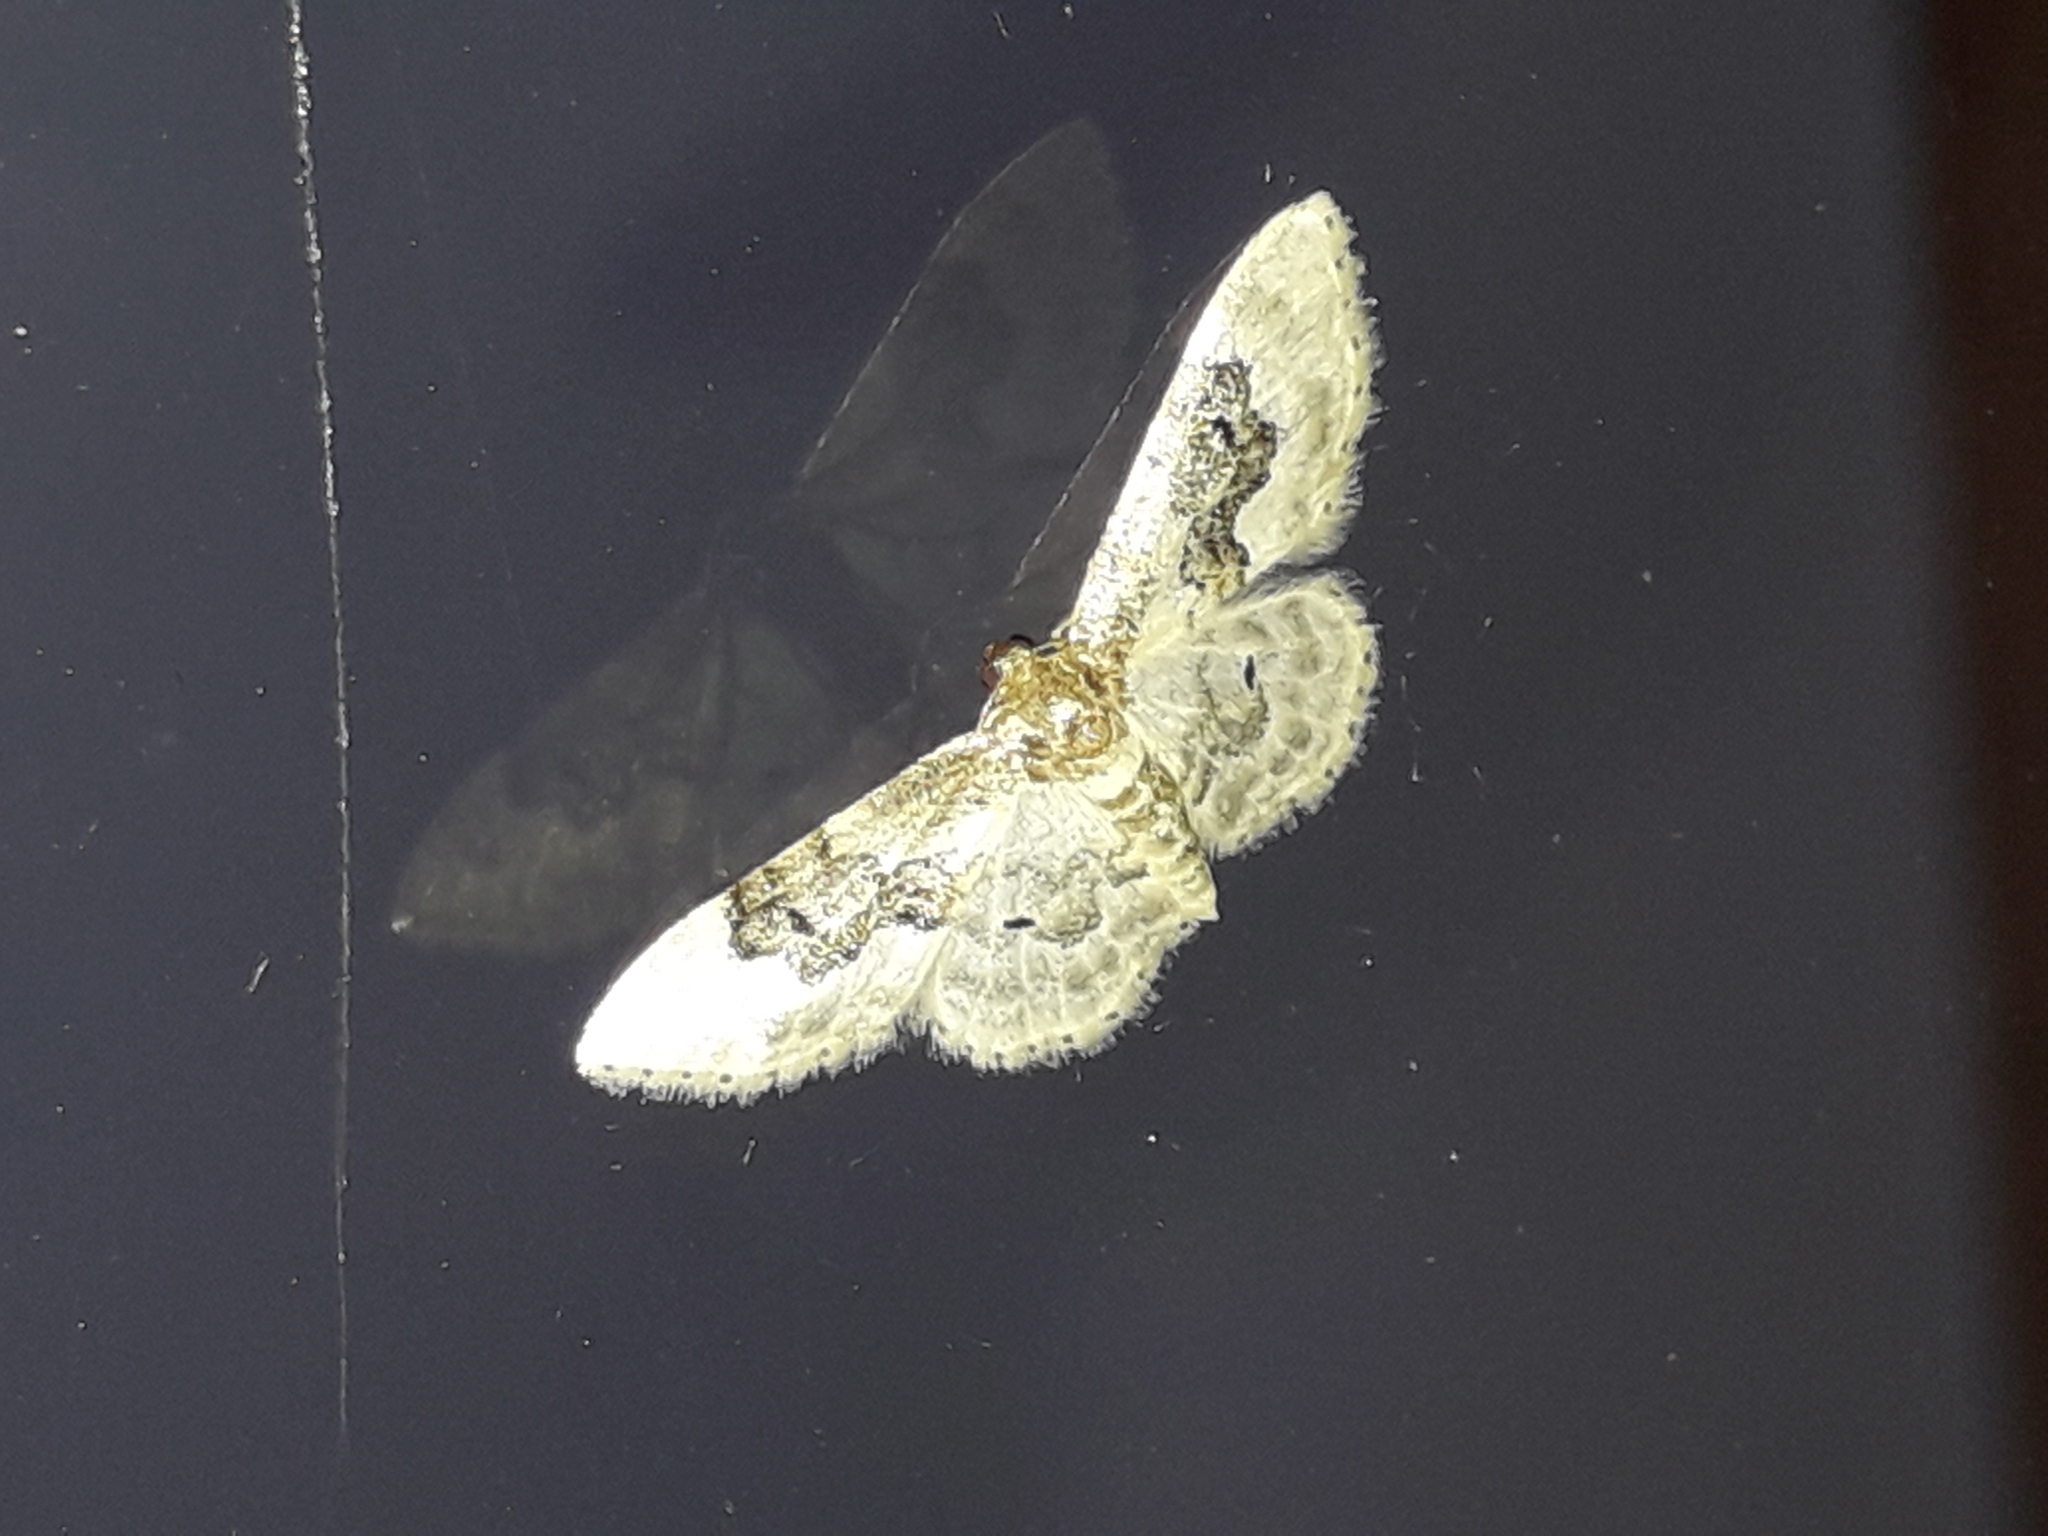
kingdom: Animalia
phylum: Arthropoda
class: Insecta
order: Lepidoptera
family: Geometridae
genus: Idaea
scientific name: Idaea rusticata
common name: Least carpet
